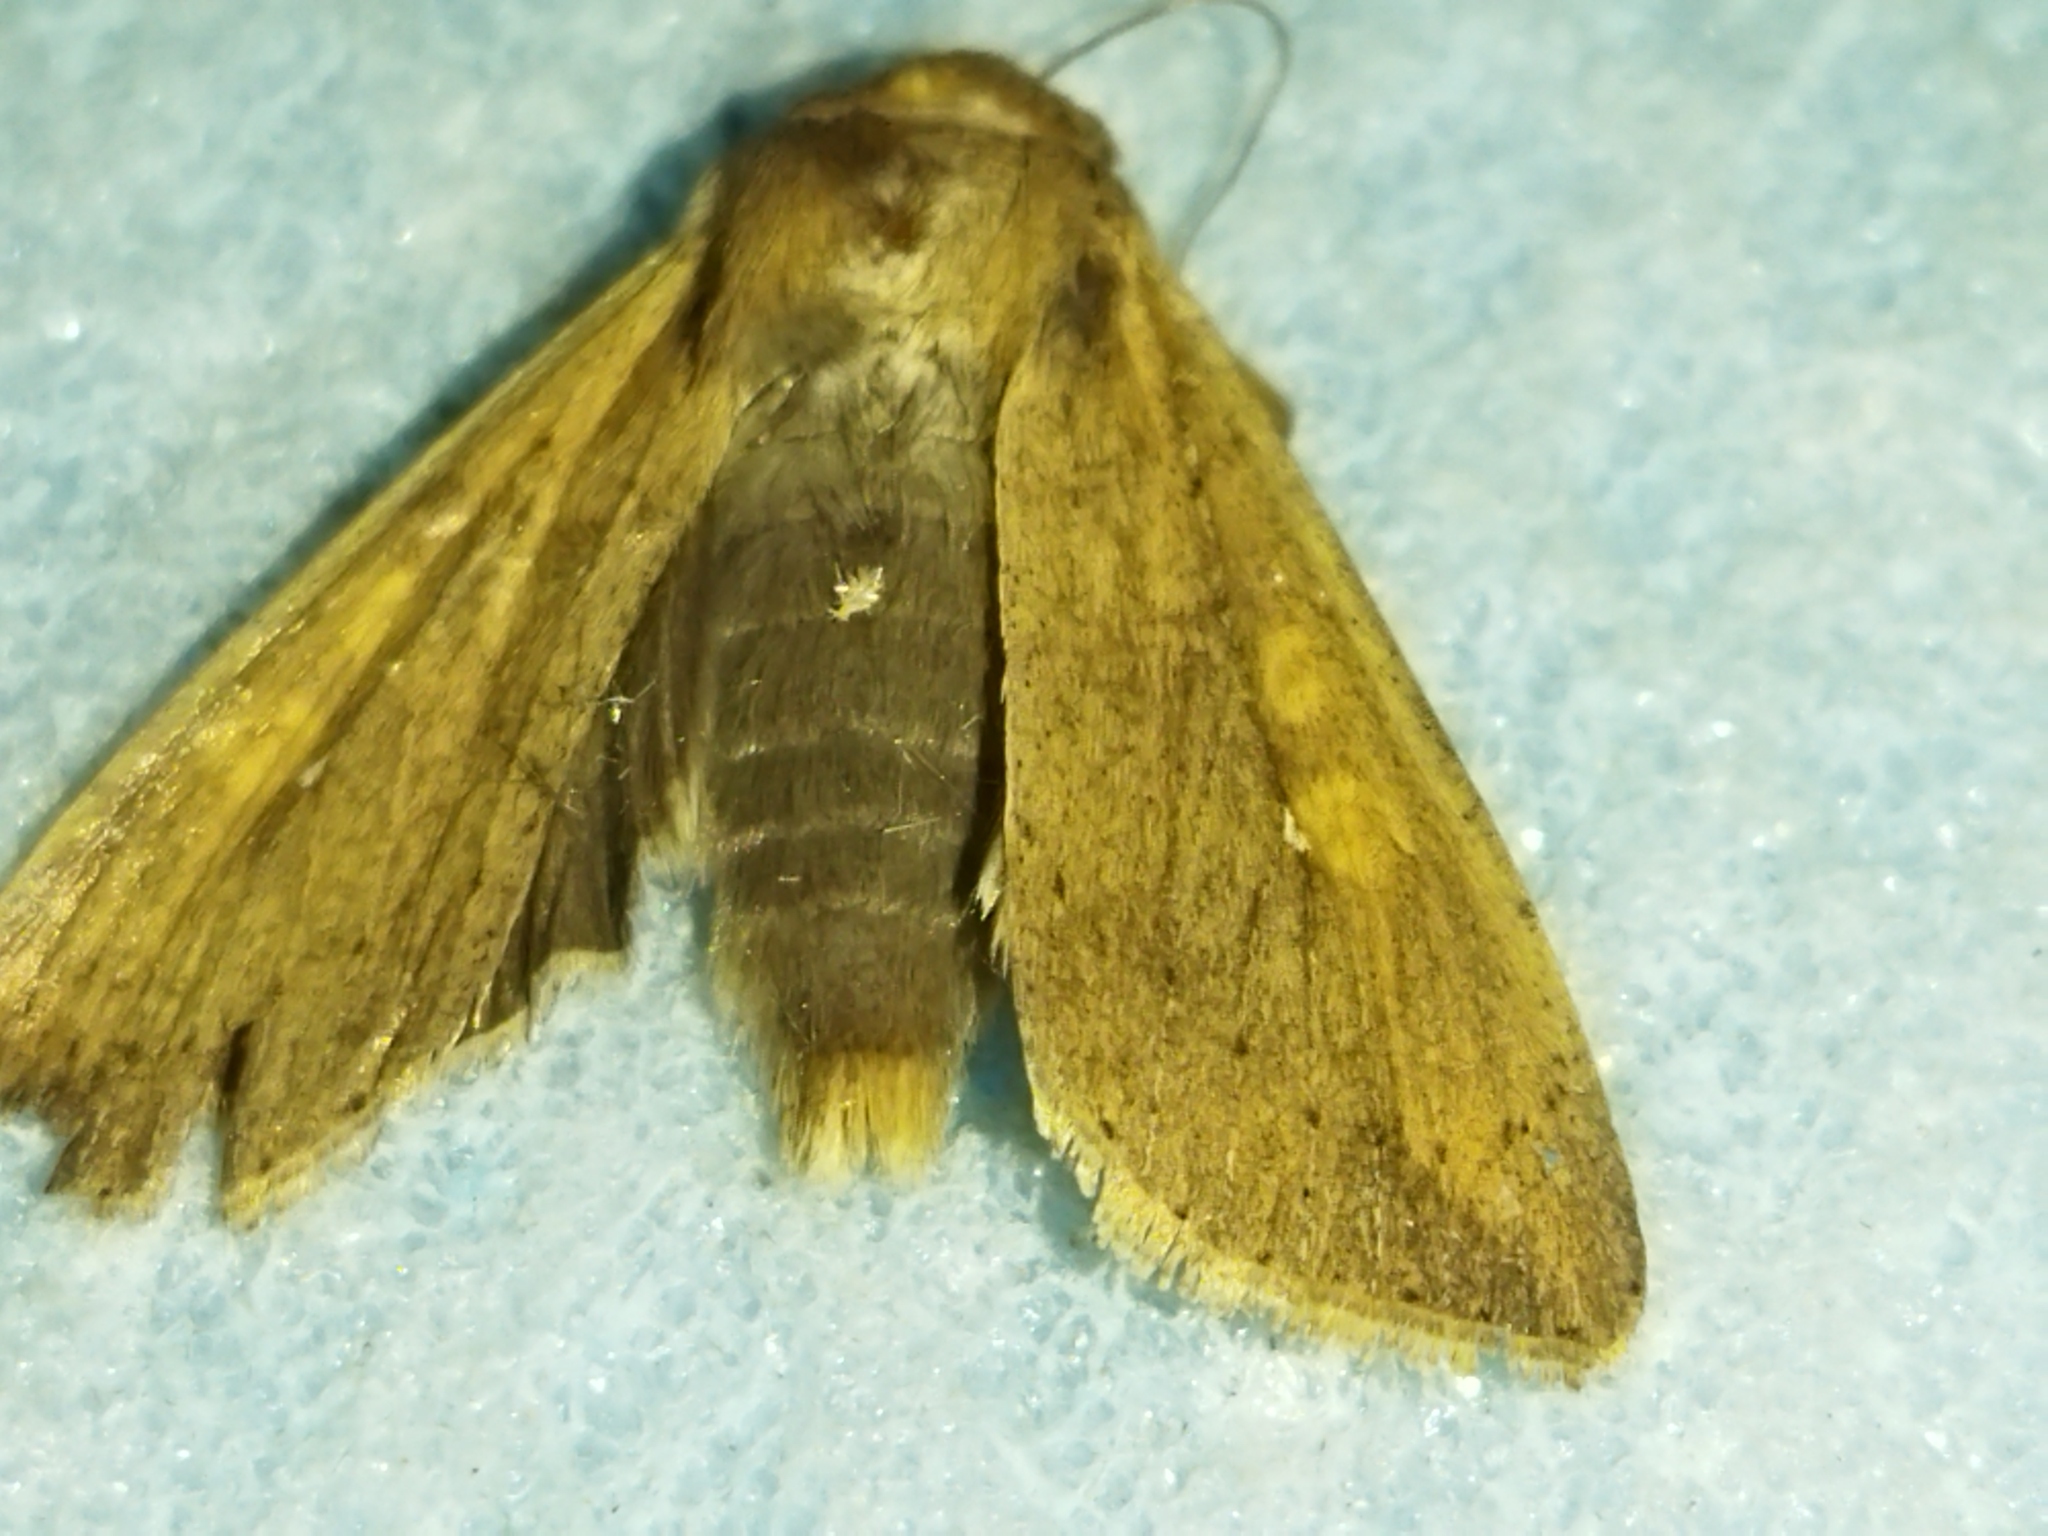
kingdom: Animalia
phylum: Arthropoda
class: Insecta
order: Lepidoptera
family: Noctuidae
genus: Mythimna
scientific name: Mythimna unipuncta
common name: White-speck
